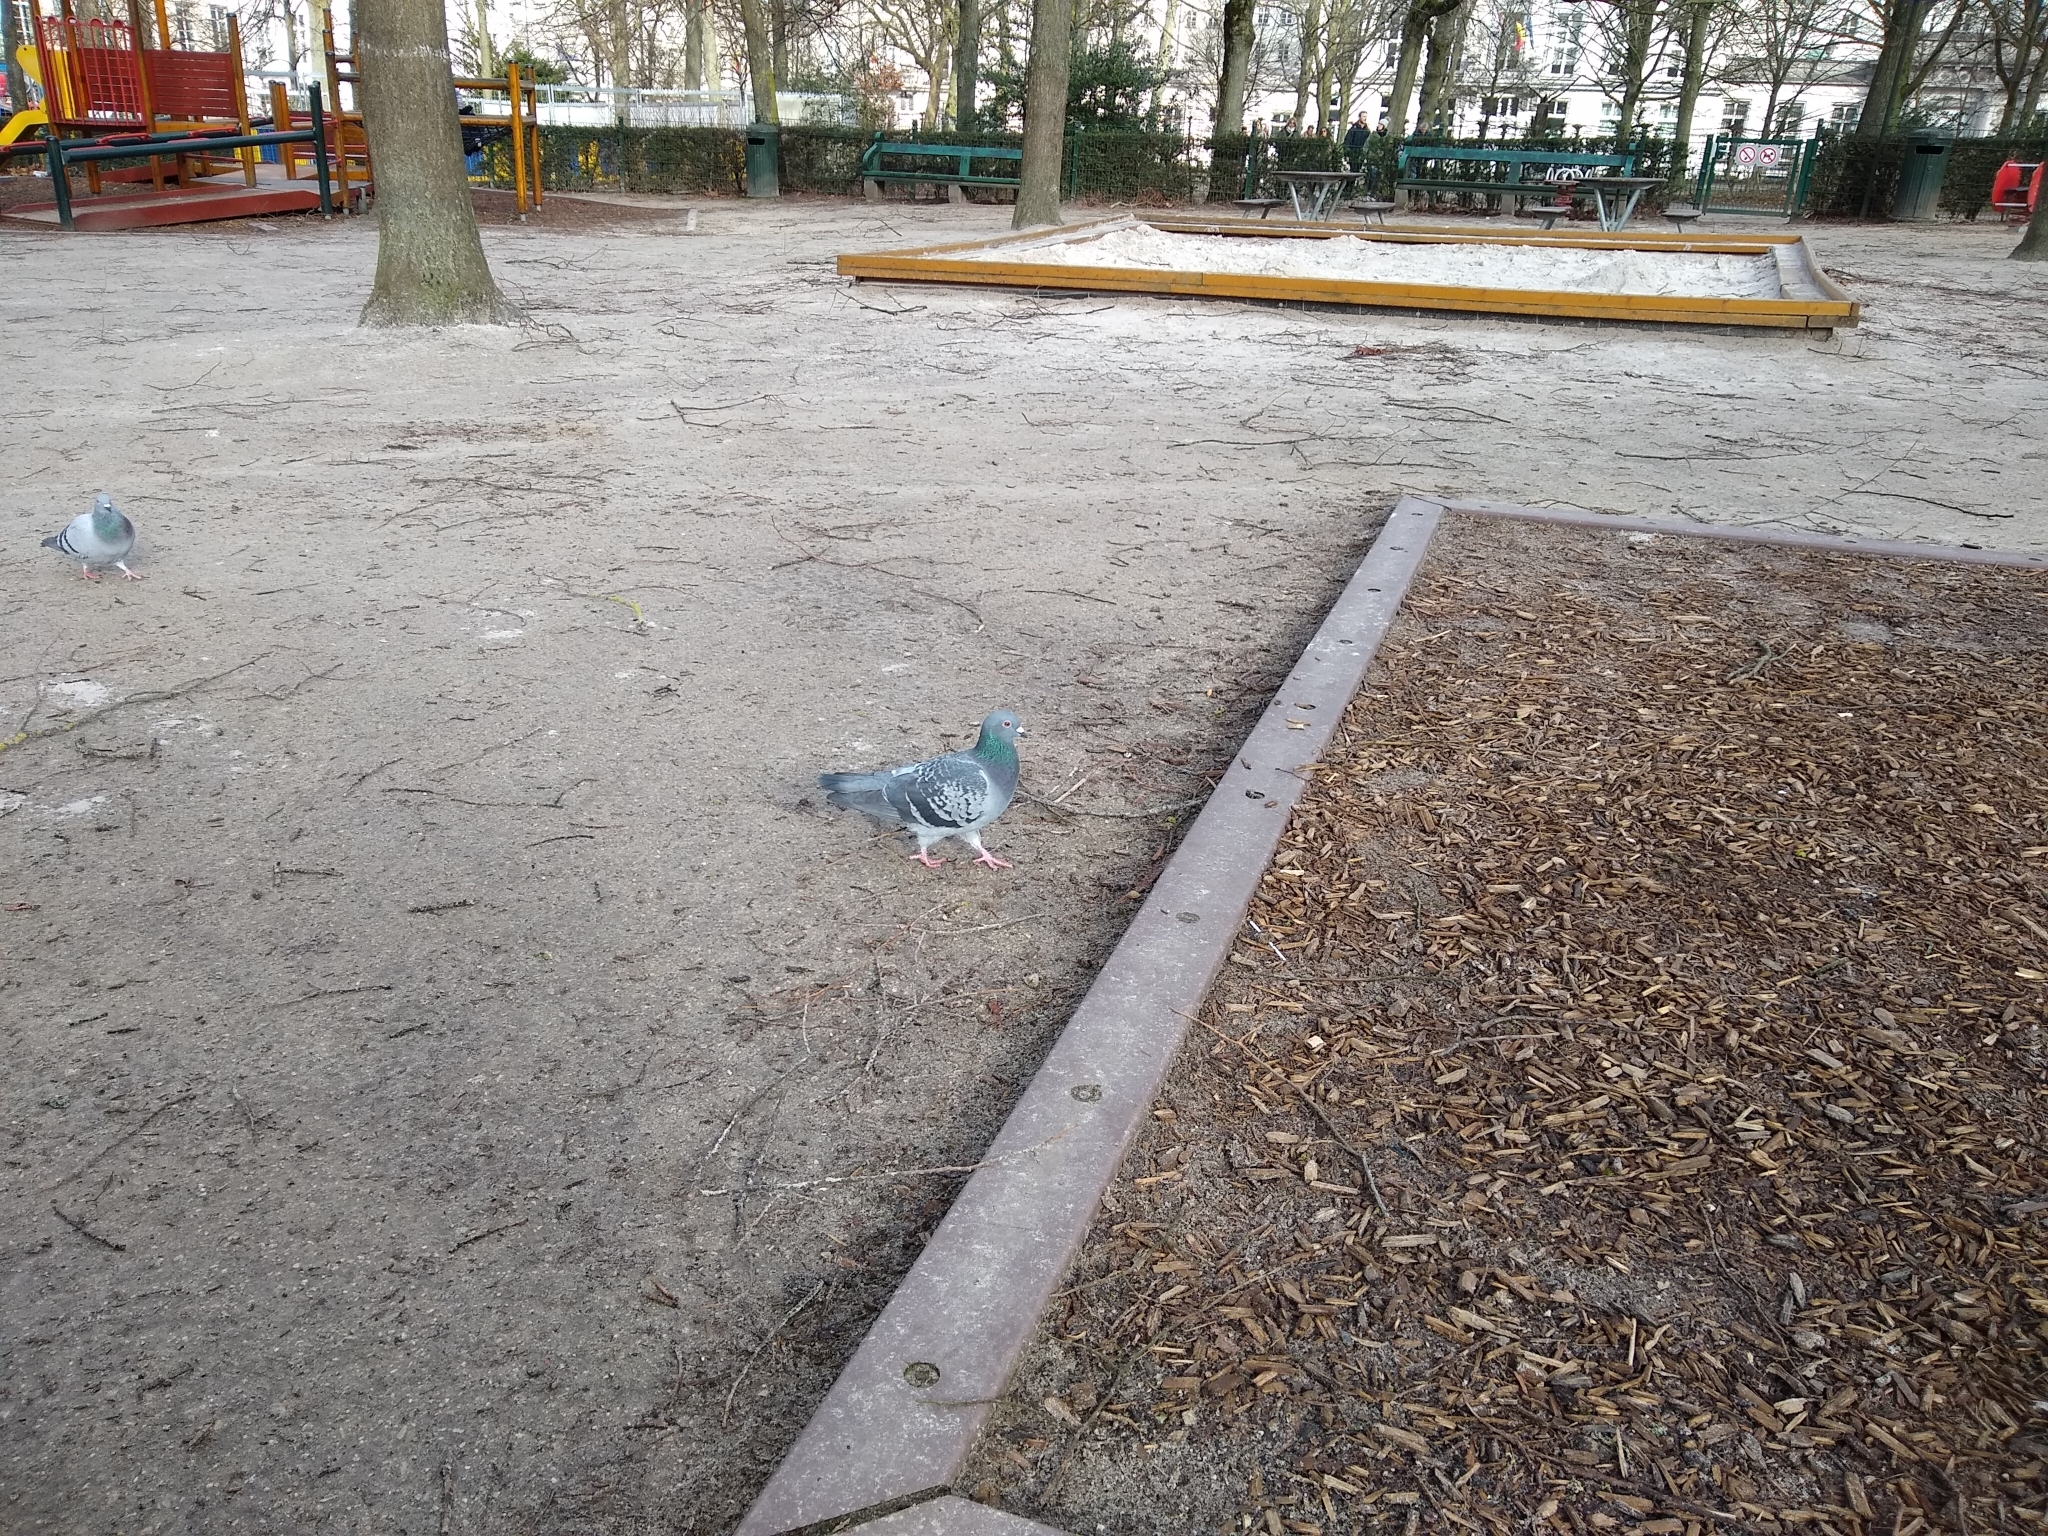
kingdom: Animalia
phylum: Chordata
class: Aves
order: Columbiformes
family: Columbidae
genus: Columba
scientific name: Columba livia
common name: Rock pigeon
